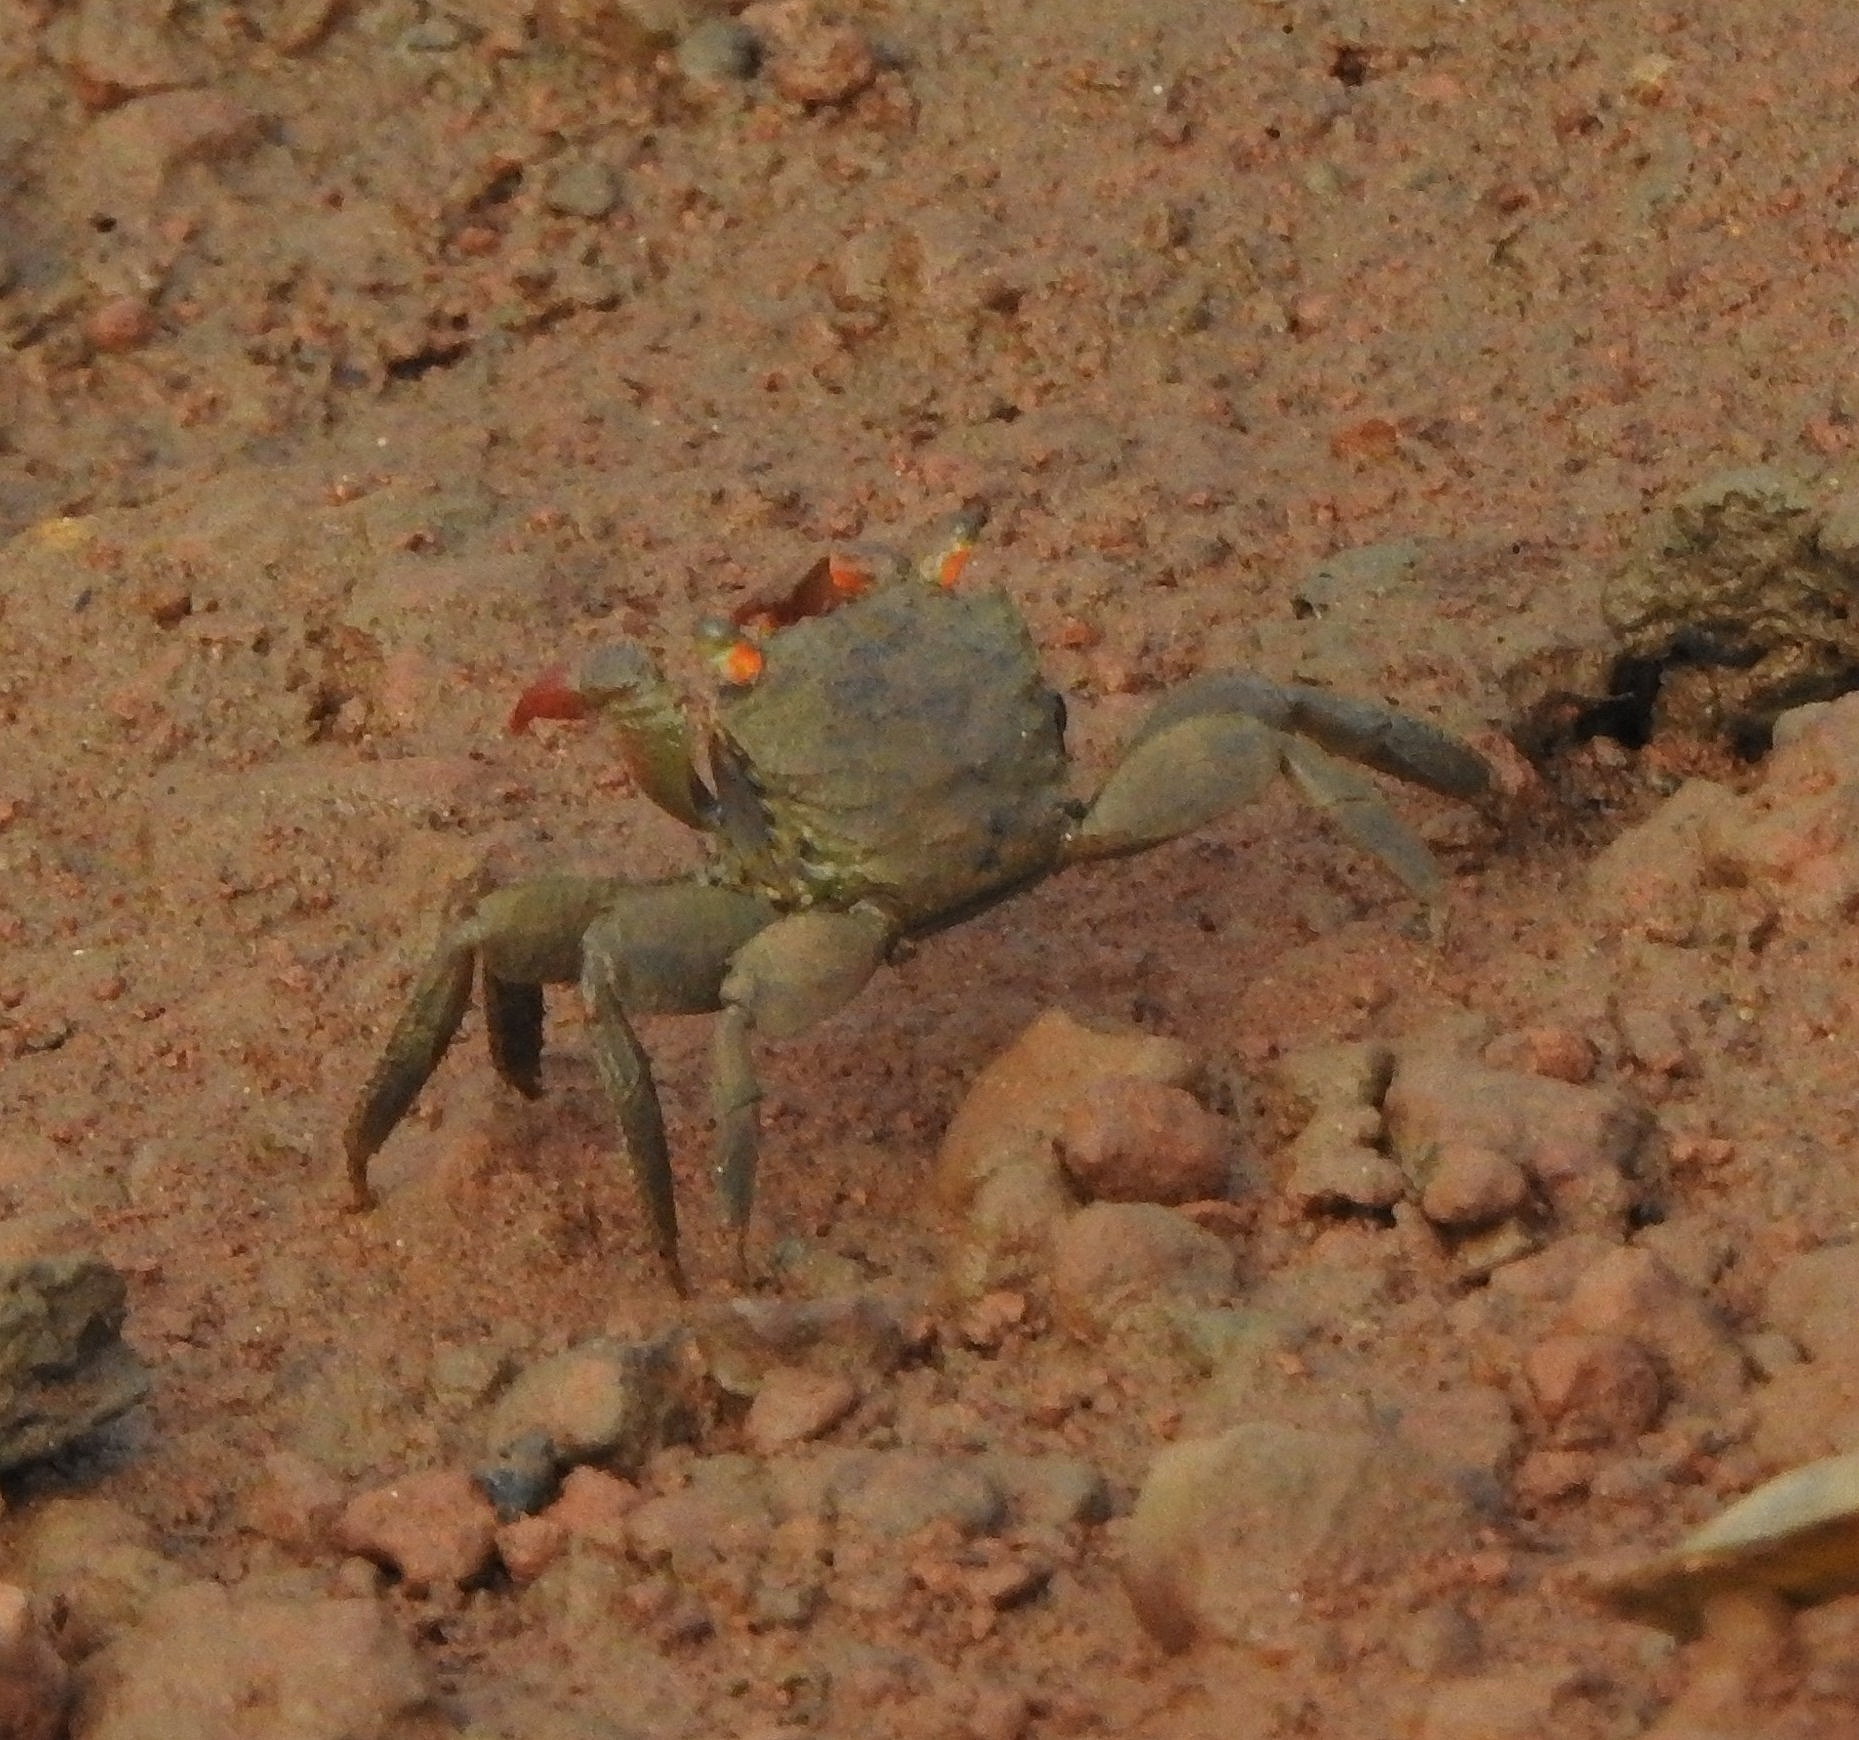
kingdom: Animalia
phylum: Arthropoda
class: Malacostraca
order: Decapoda
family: Sesarmidae
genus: Parasesarma
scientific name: Parasesarma bidens
